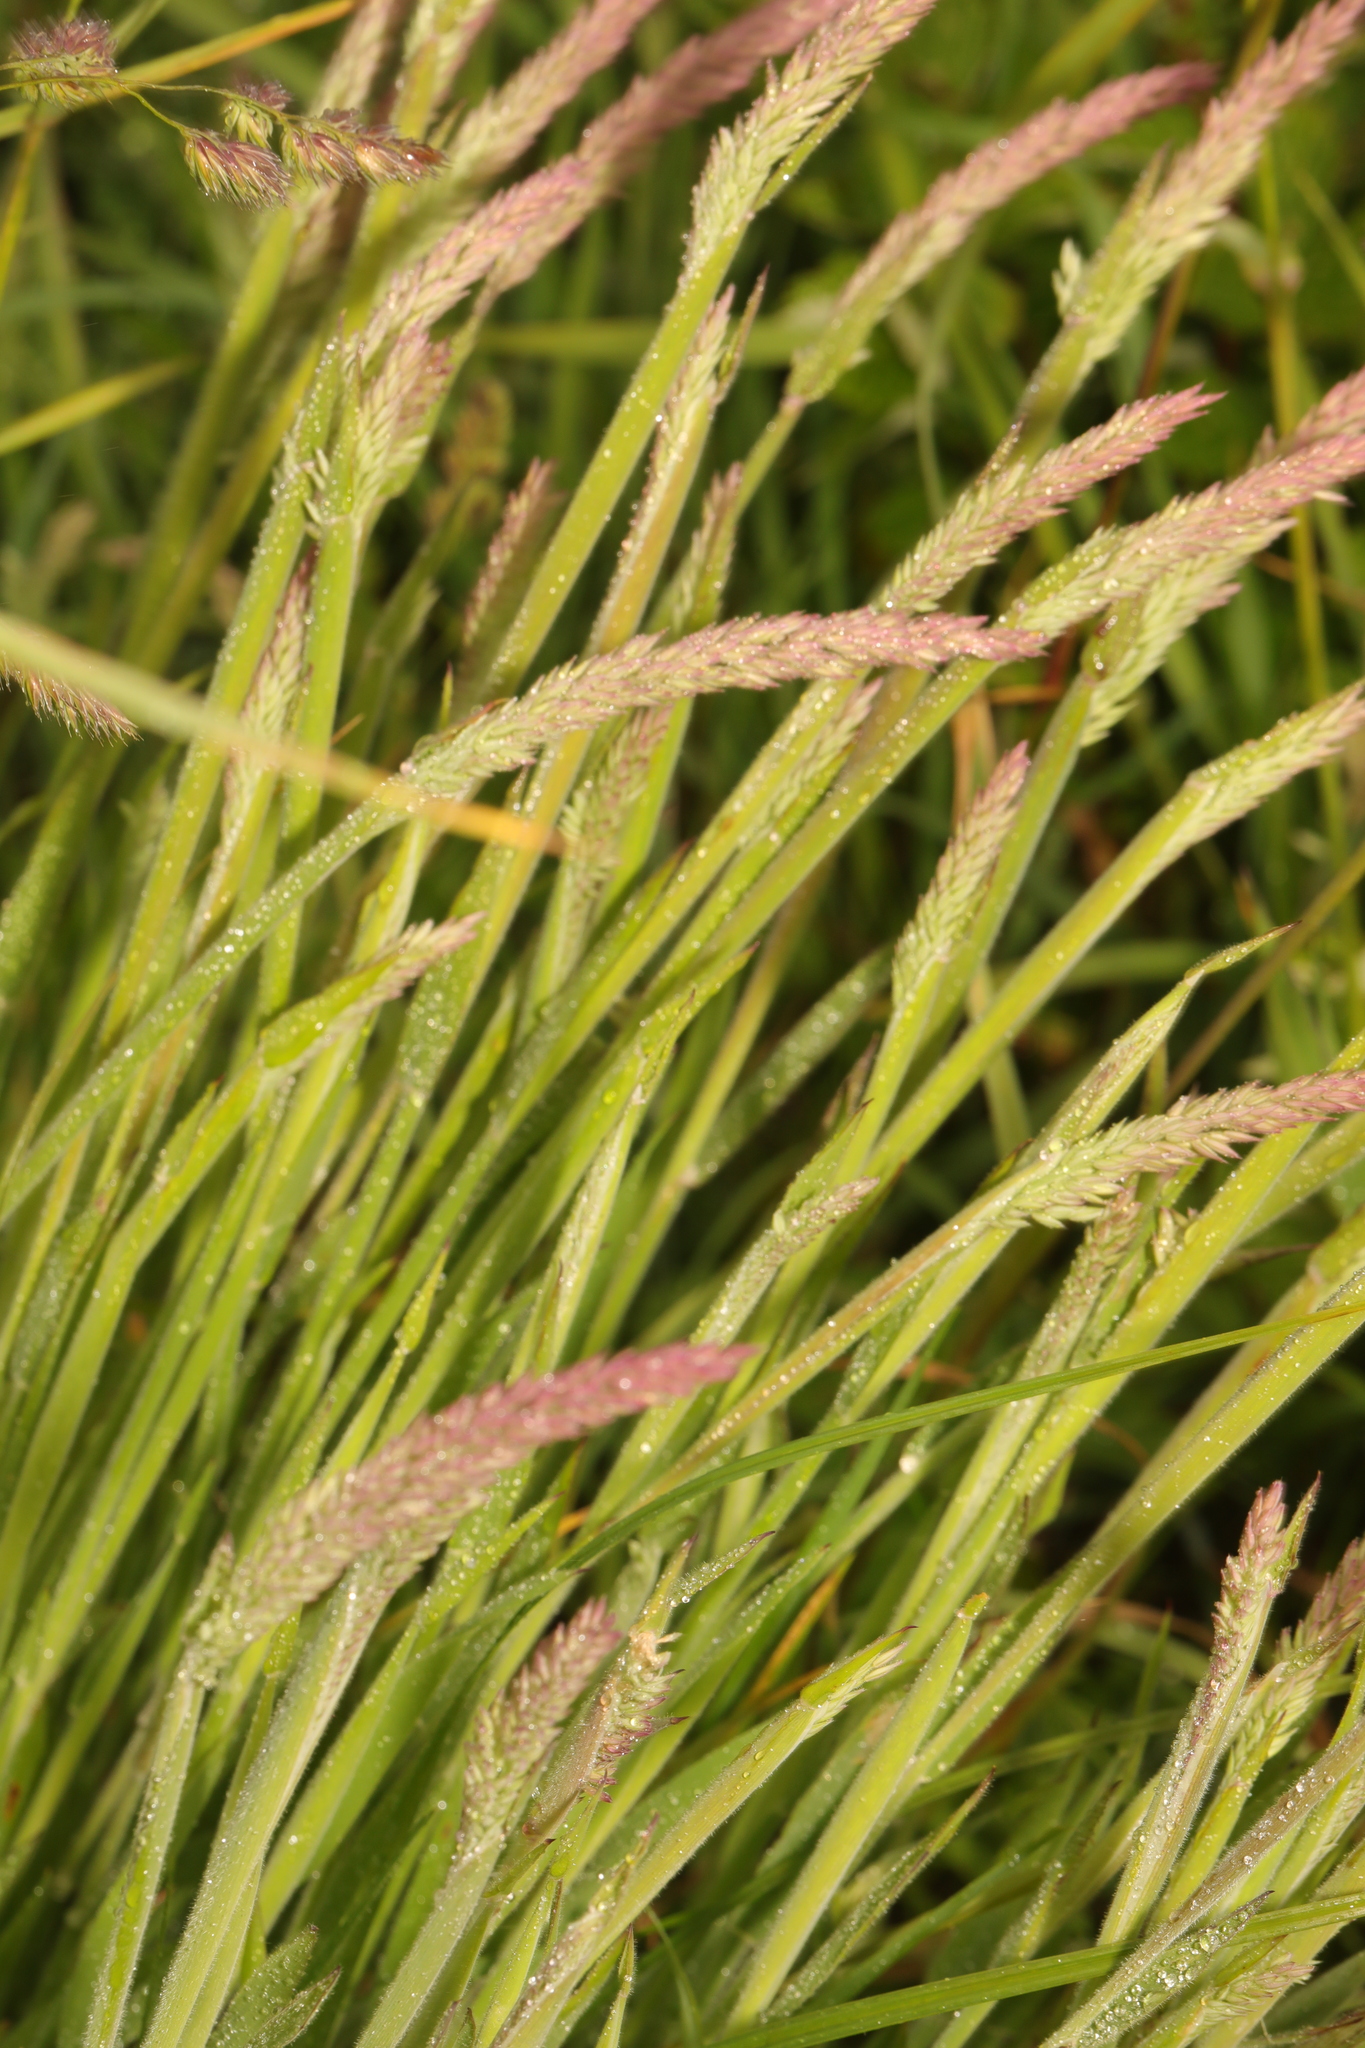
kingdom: Plantae
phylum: Tracheophyta
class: Liliopsida
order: Poales
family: Poaceae
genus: Holcus
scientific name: Holcus lanatus
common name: Yorkshire-fog
